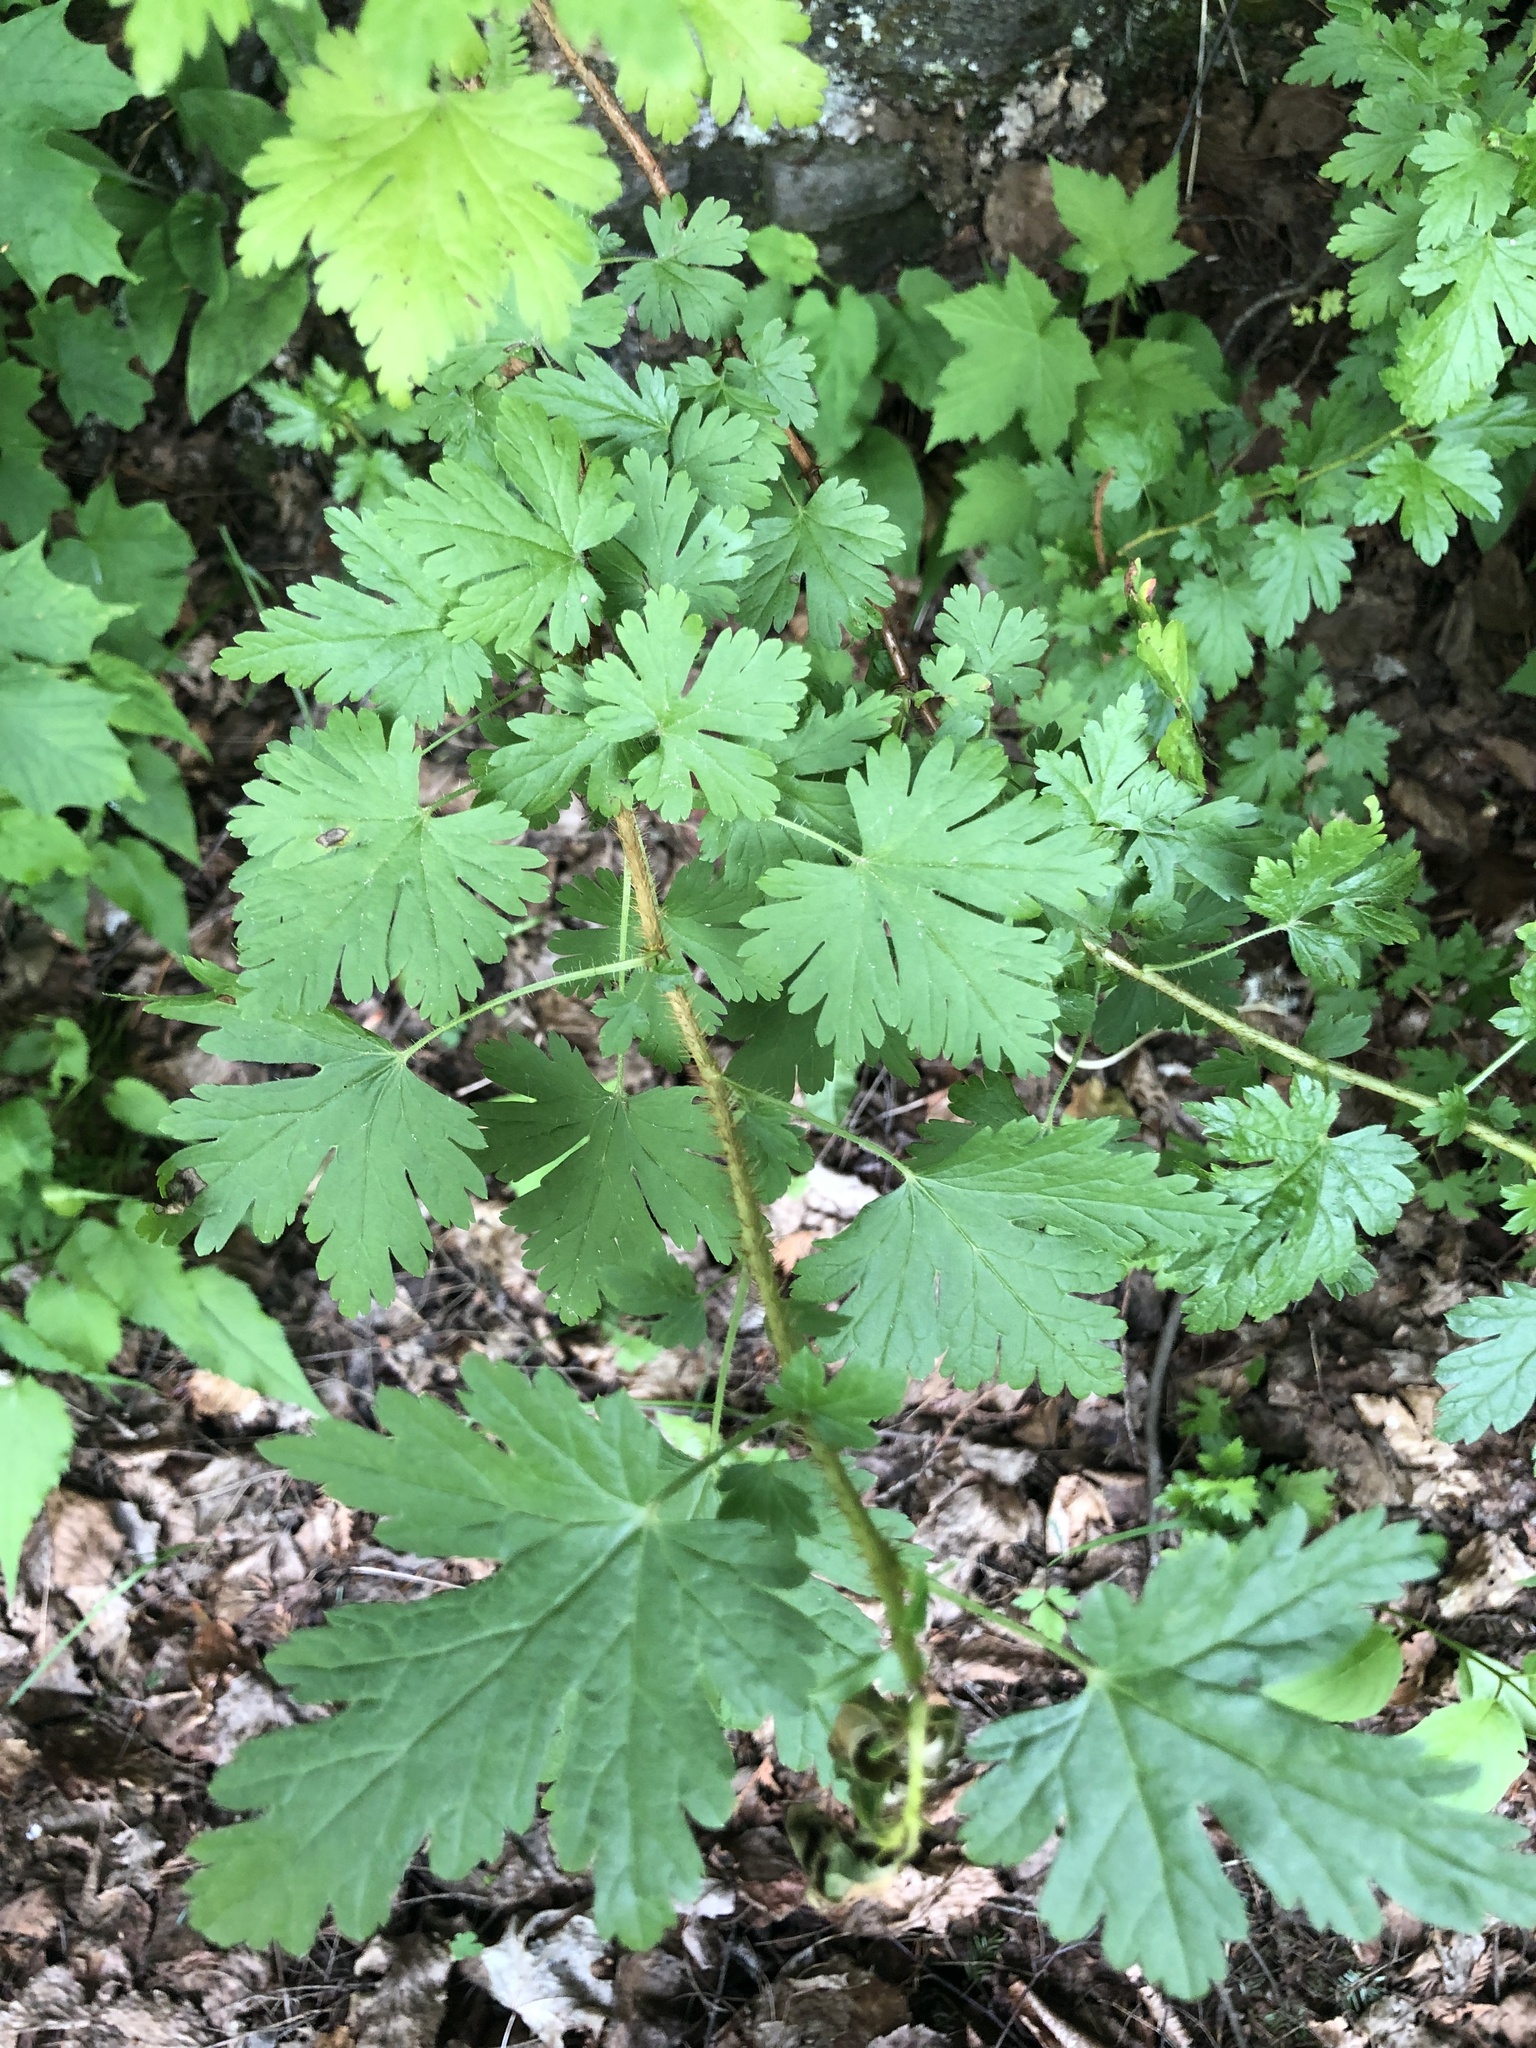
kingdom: Plantae
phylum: Tracheophyta
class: Magnoliopsida
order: Saxifragales
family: Grossulariaceae
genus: Ribes
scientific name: Ribes lacustre
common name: Black gooseberry
